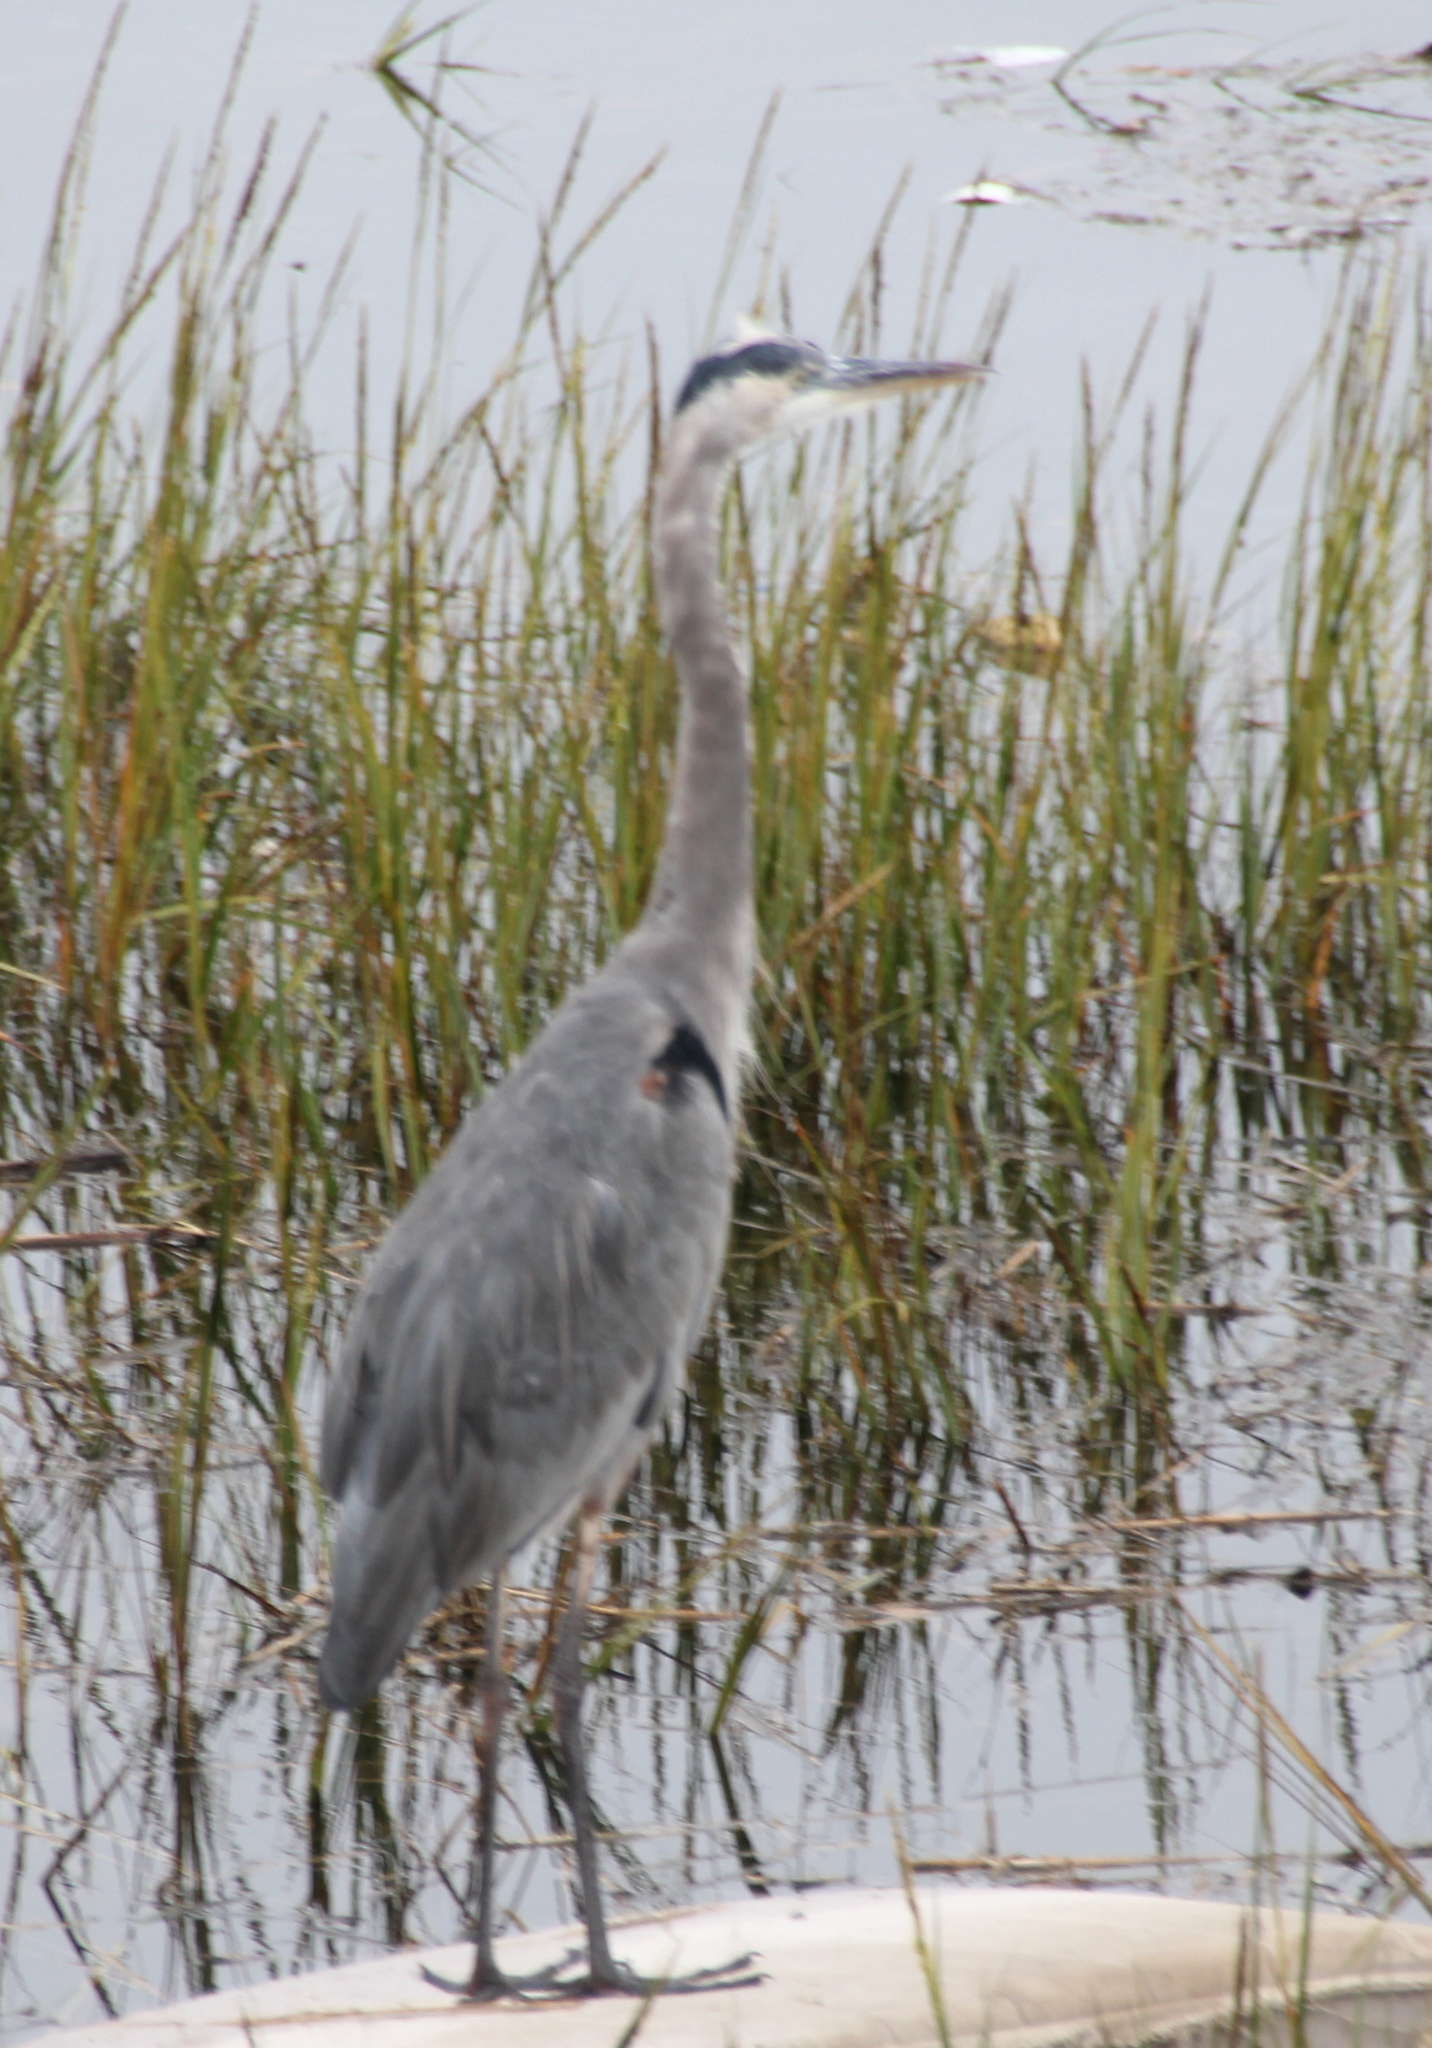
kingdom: Animalia
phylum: Chordata
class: Aves
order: Pelecaniformes
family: Ardeidae
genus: Ardea
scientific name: Ardea herodias
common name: Great blue heron
